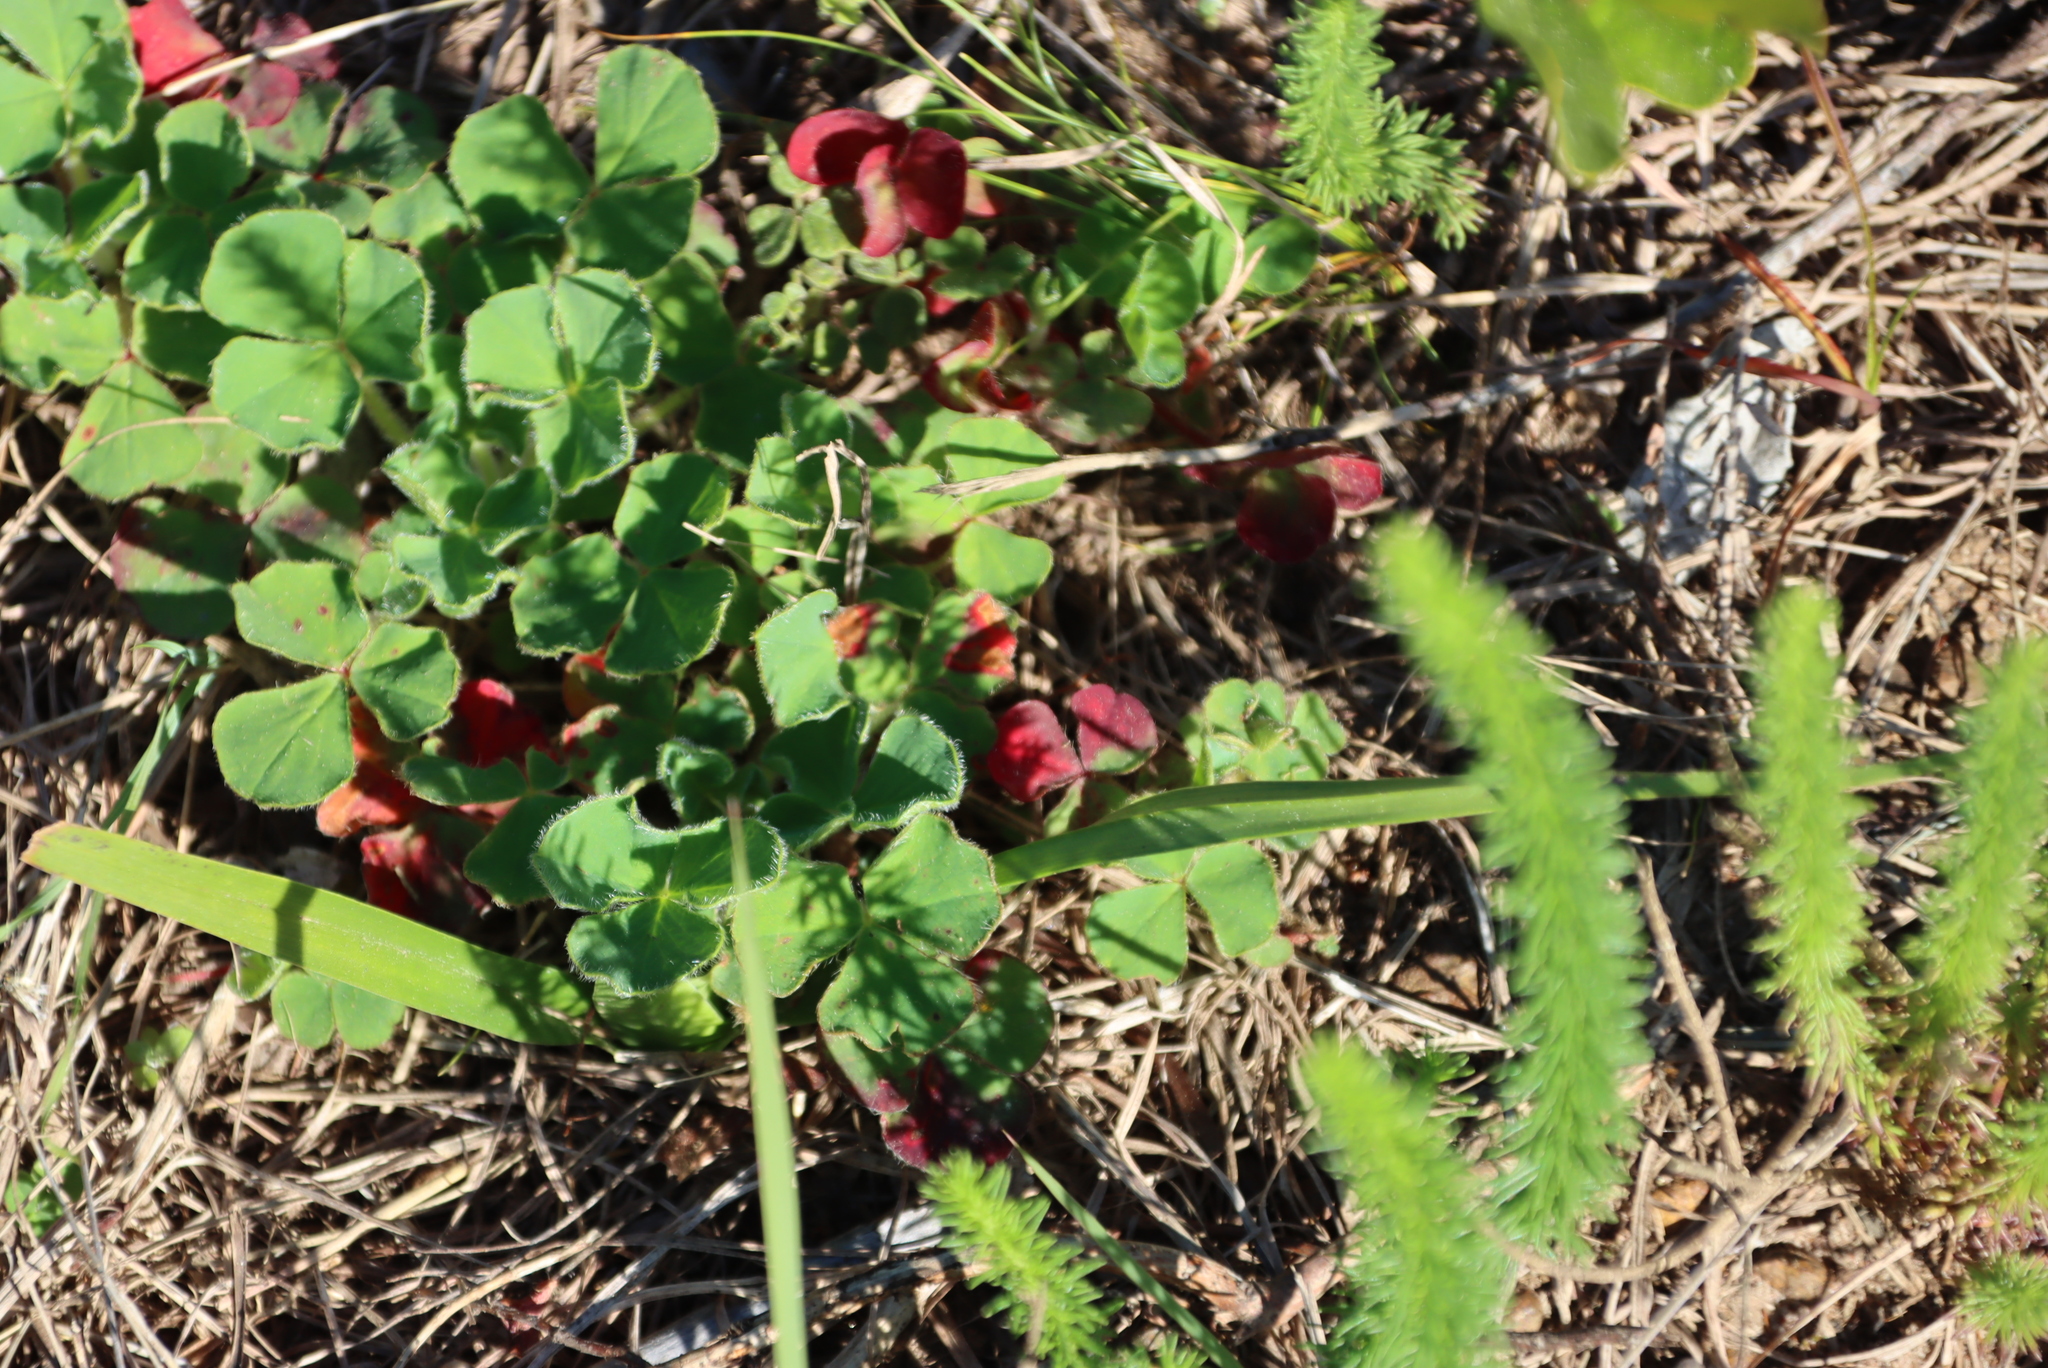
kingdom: Plantae
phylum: Tracheophyta
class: Magnoliopsida
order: Oxalidales
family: Oxalidaceae
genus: Oxalis
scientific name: Oxalis imbricata
